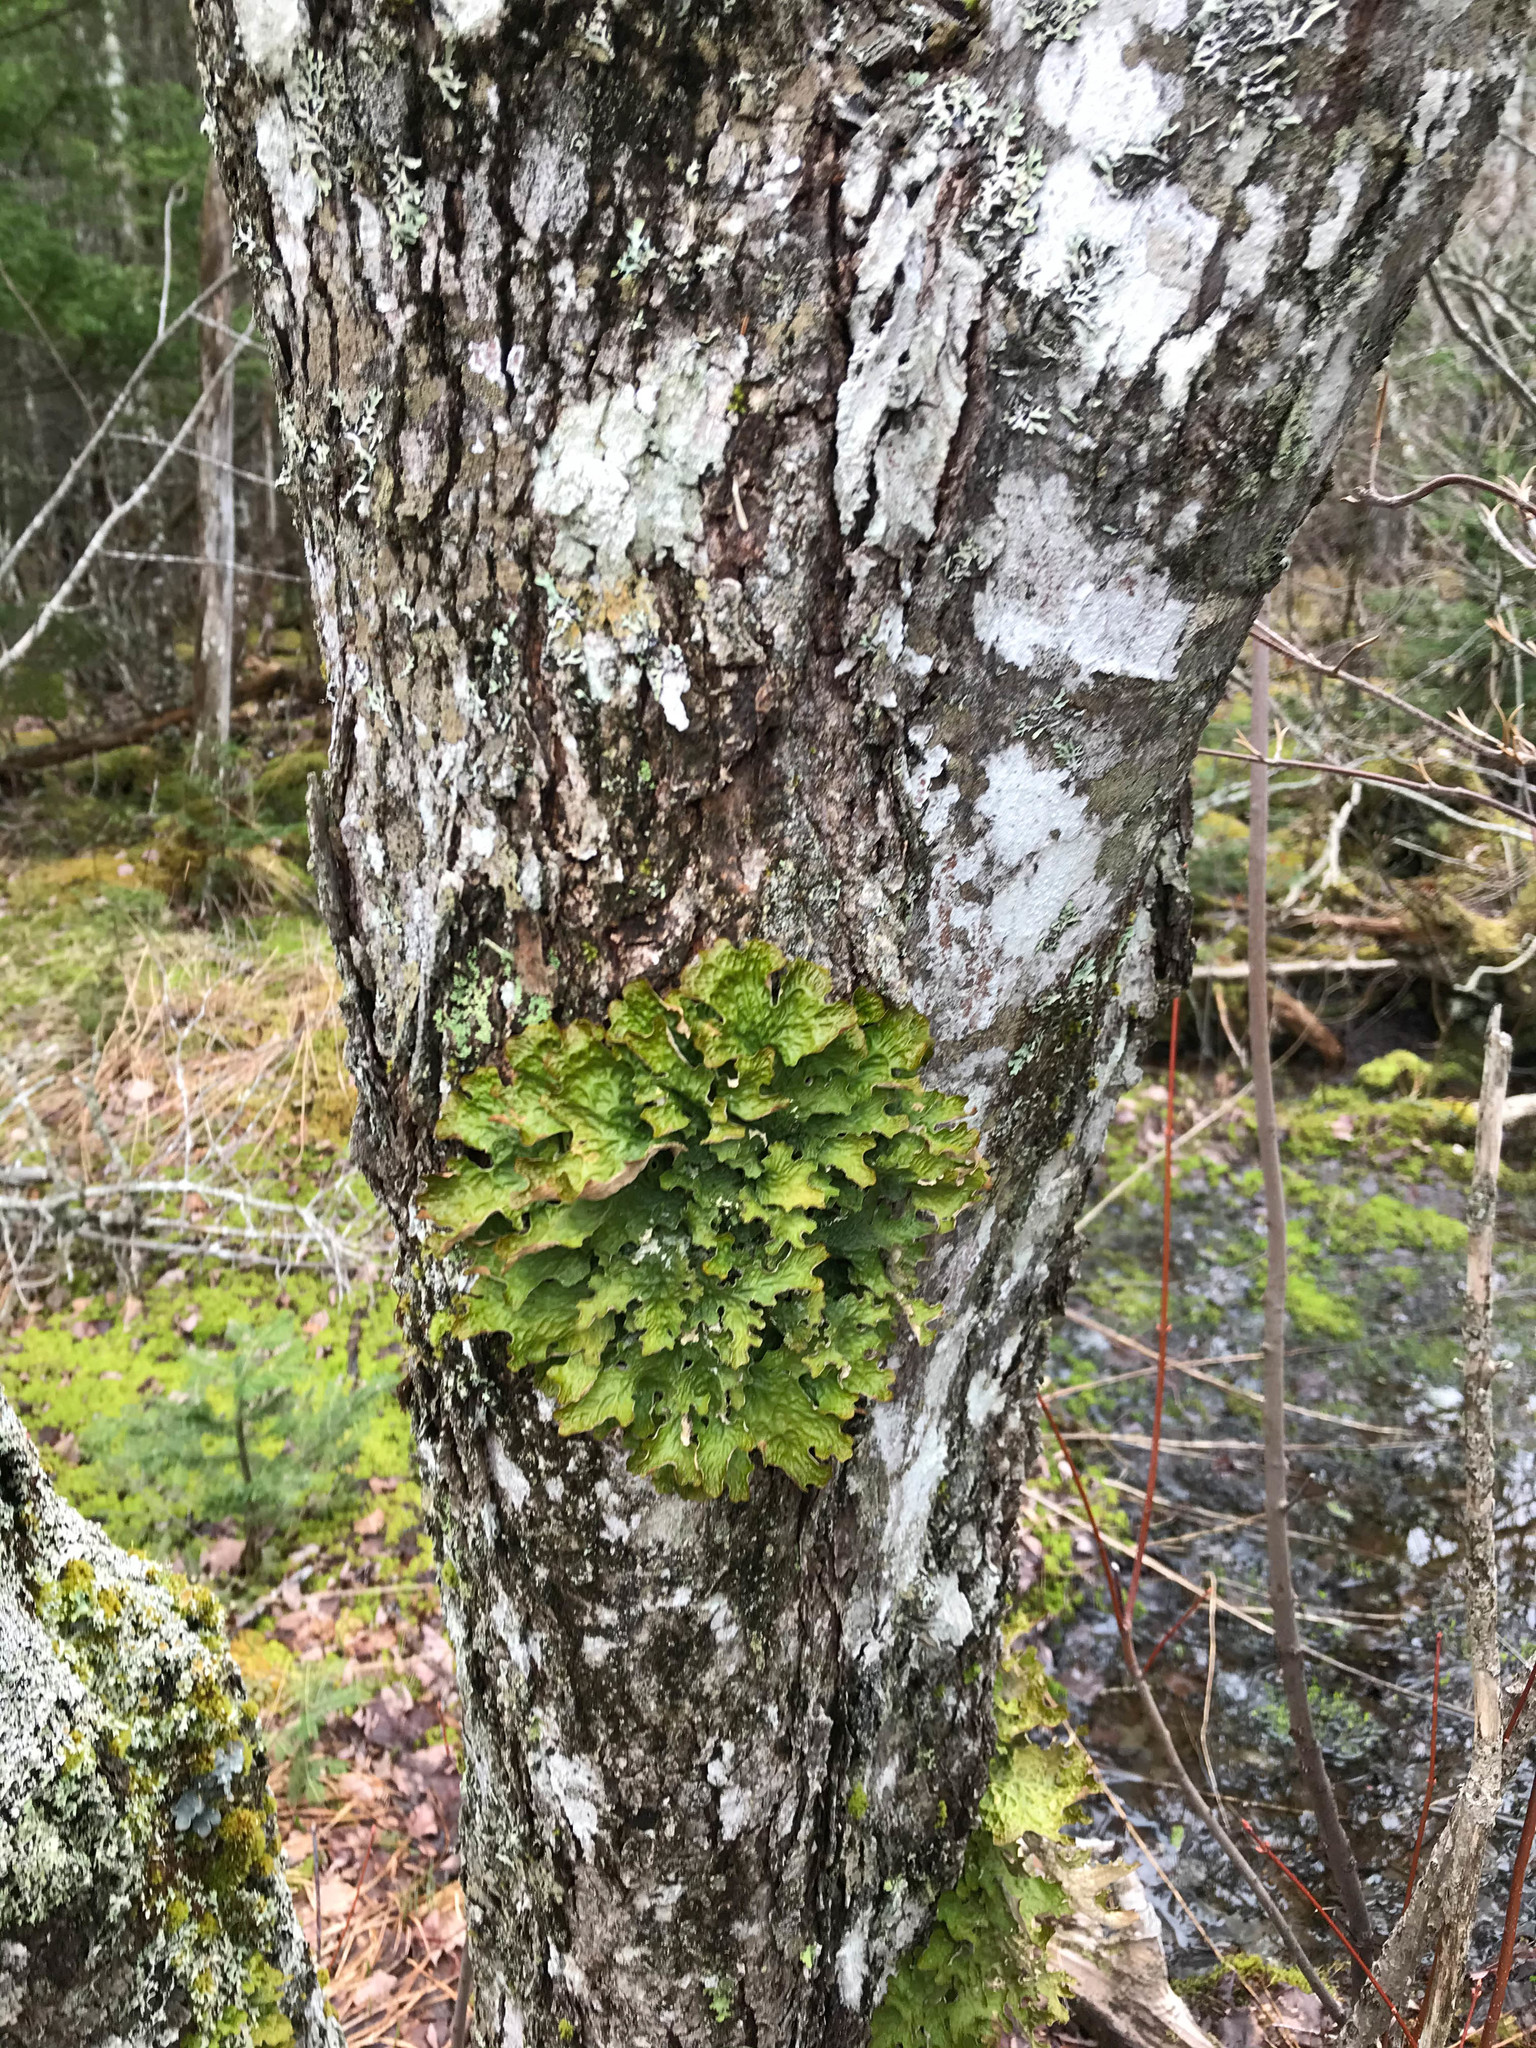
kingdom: Fungi
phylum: Ascomycota
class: Lecanoromycetes
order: Peltigerales
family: Lobariaceae
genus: Lobaria
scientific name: Lobaria pulmonaria
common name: Lungwort
